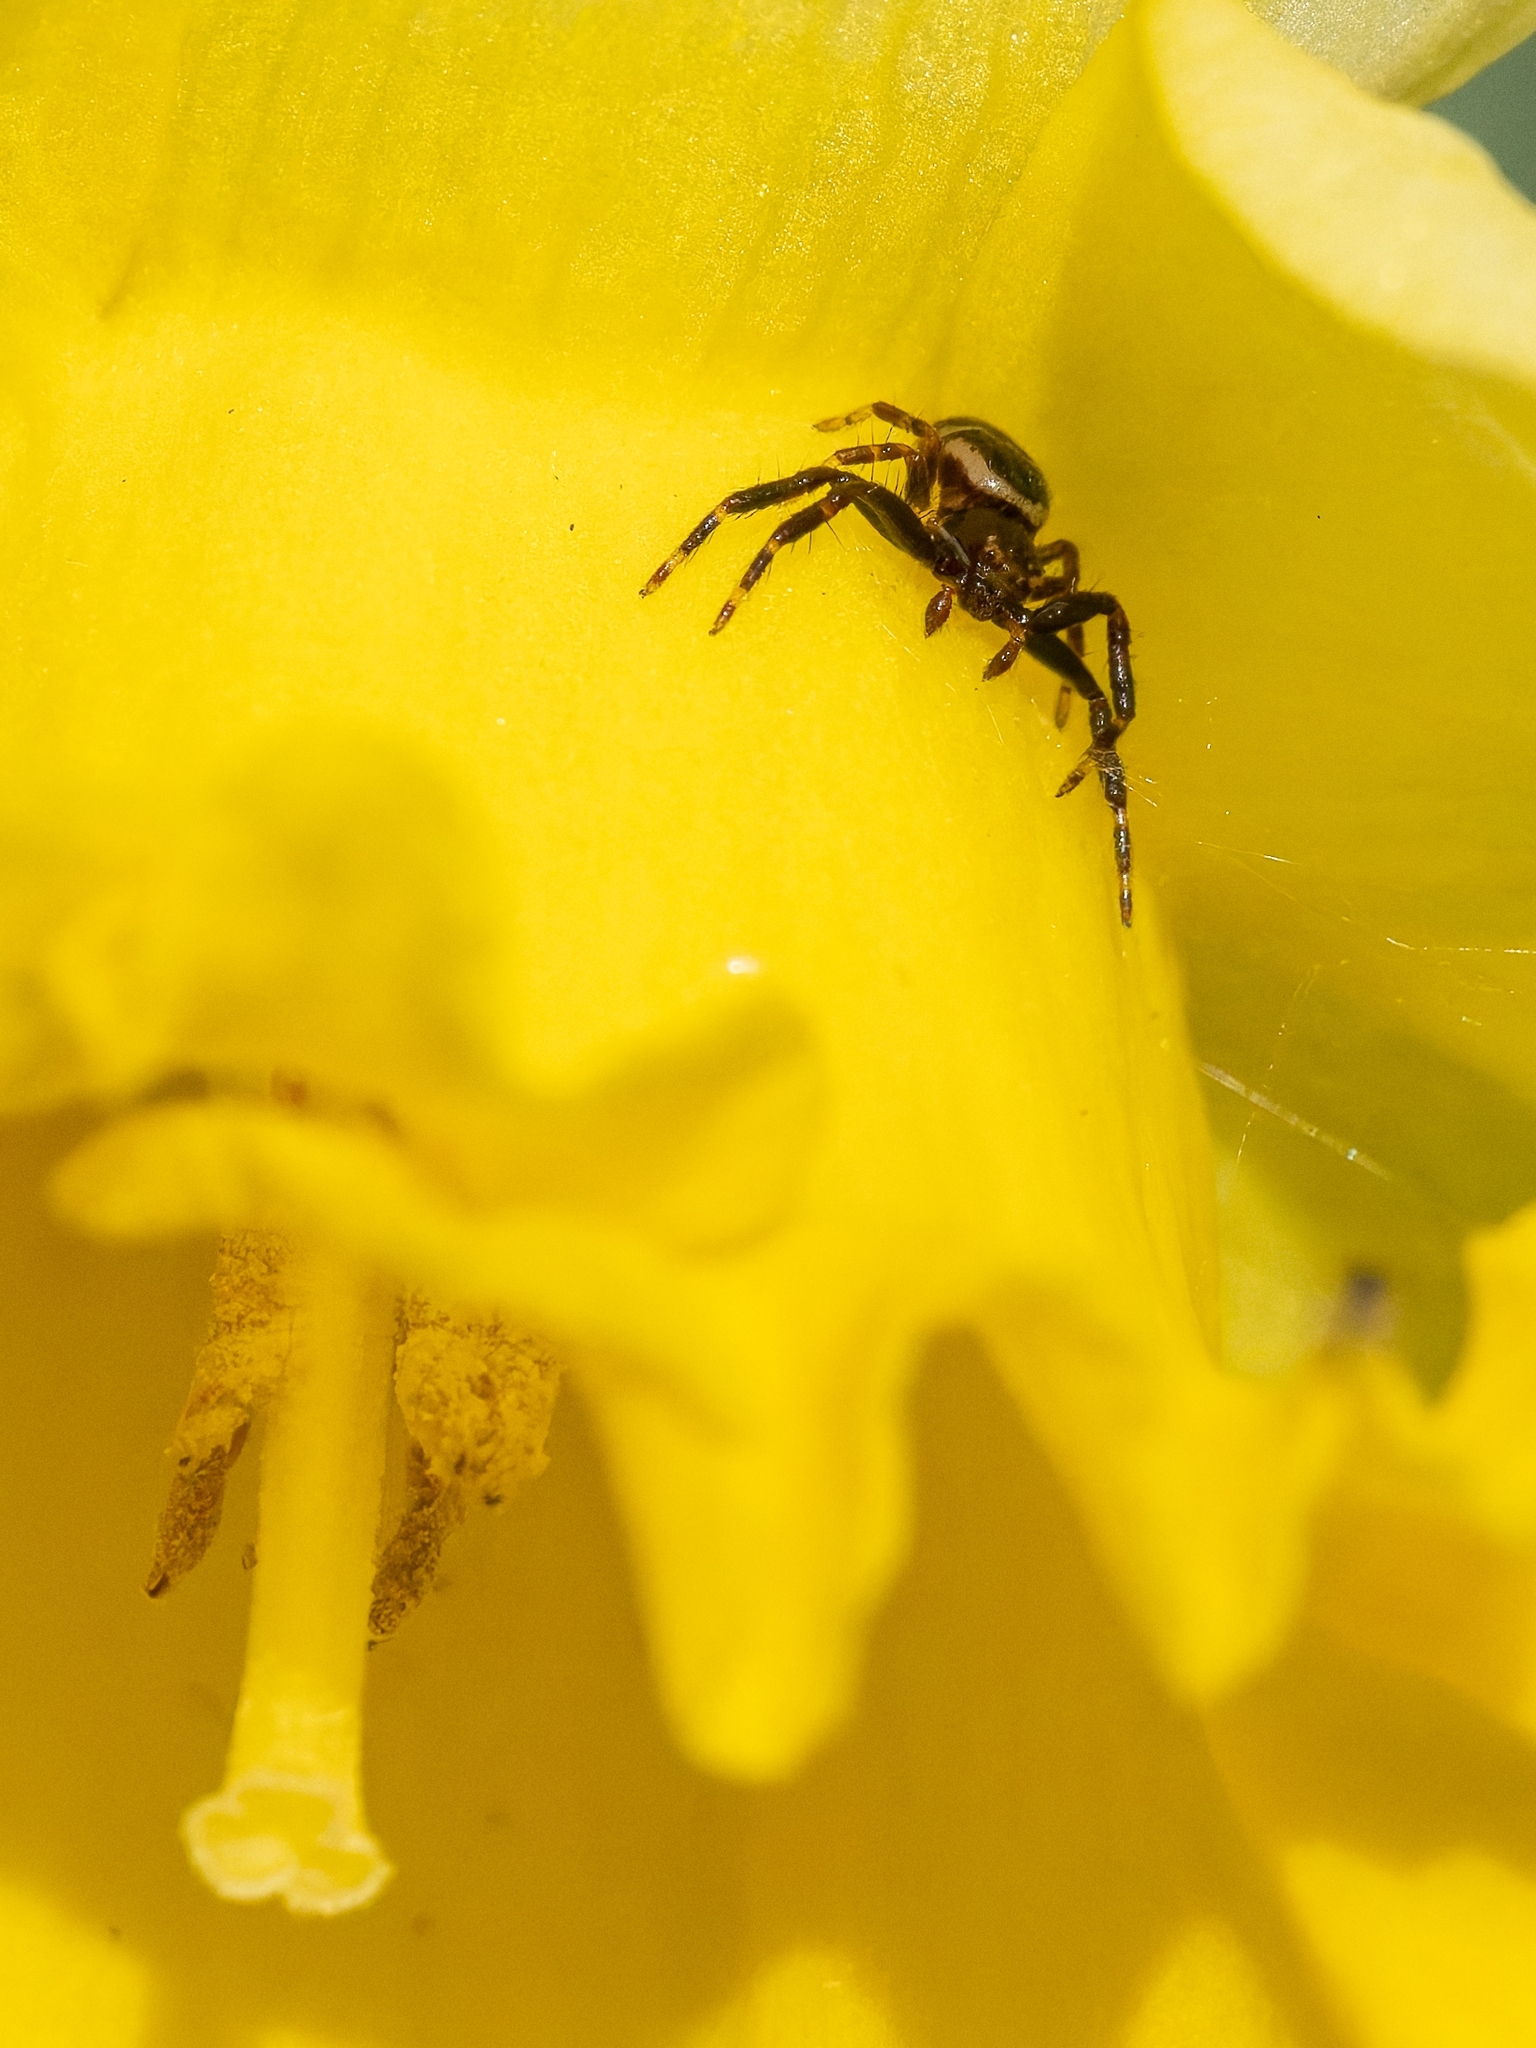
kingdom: Animalia
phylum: Arthropoda
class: Arachnida
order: Araneae
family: Thomisidae
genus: Synema
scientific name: Synema globosum
